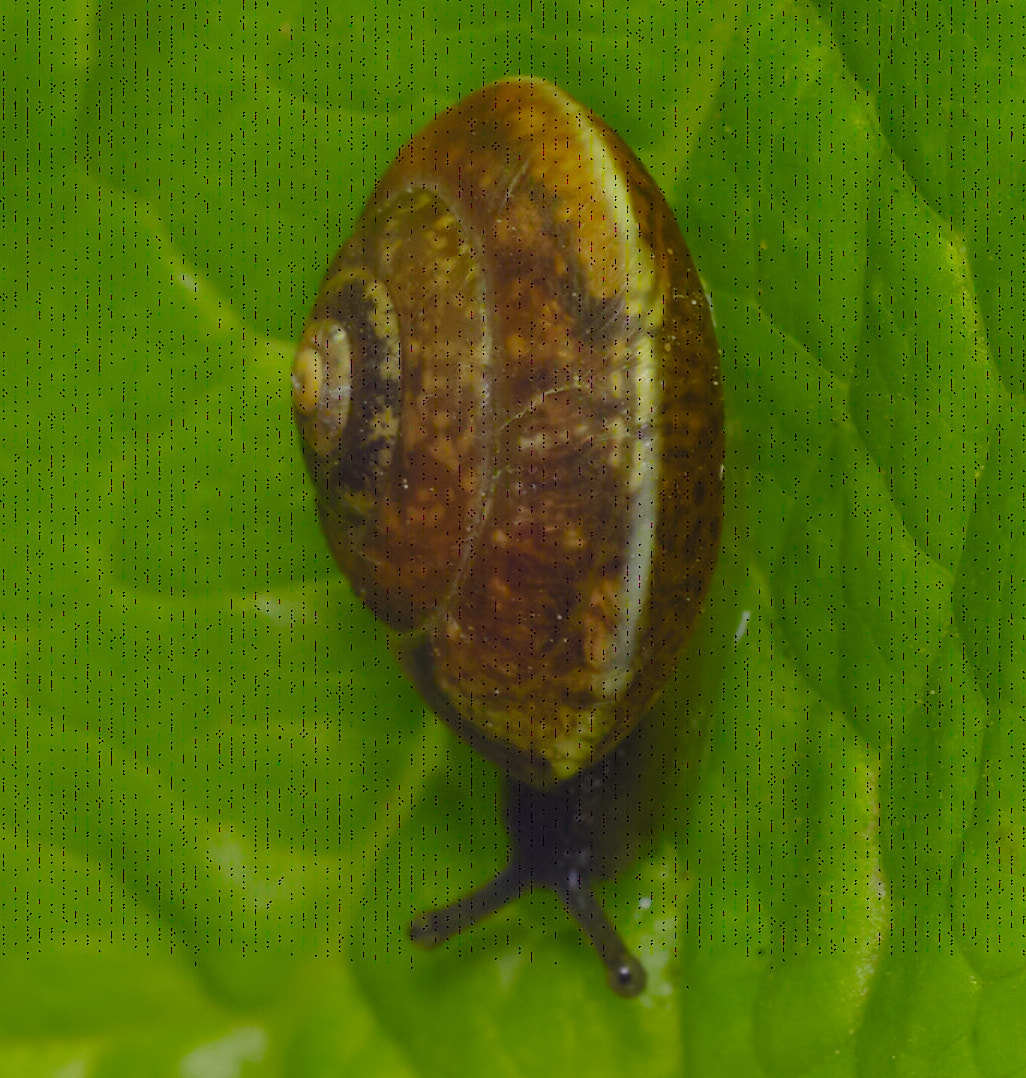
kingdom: Animalia
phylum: Mollusca
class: Gastropoda
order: Stylommatophora
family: Hygromiidae
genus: Hygromia
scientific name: Hygromia cinctella
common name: Girdled snail
